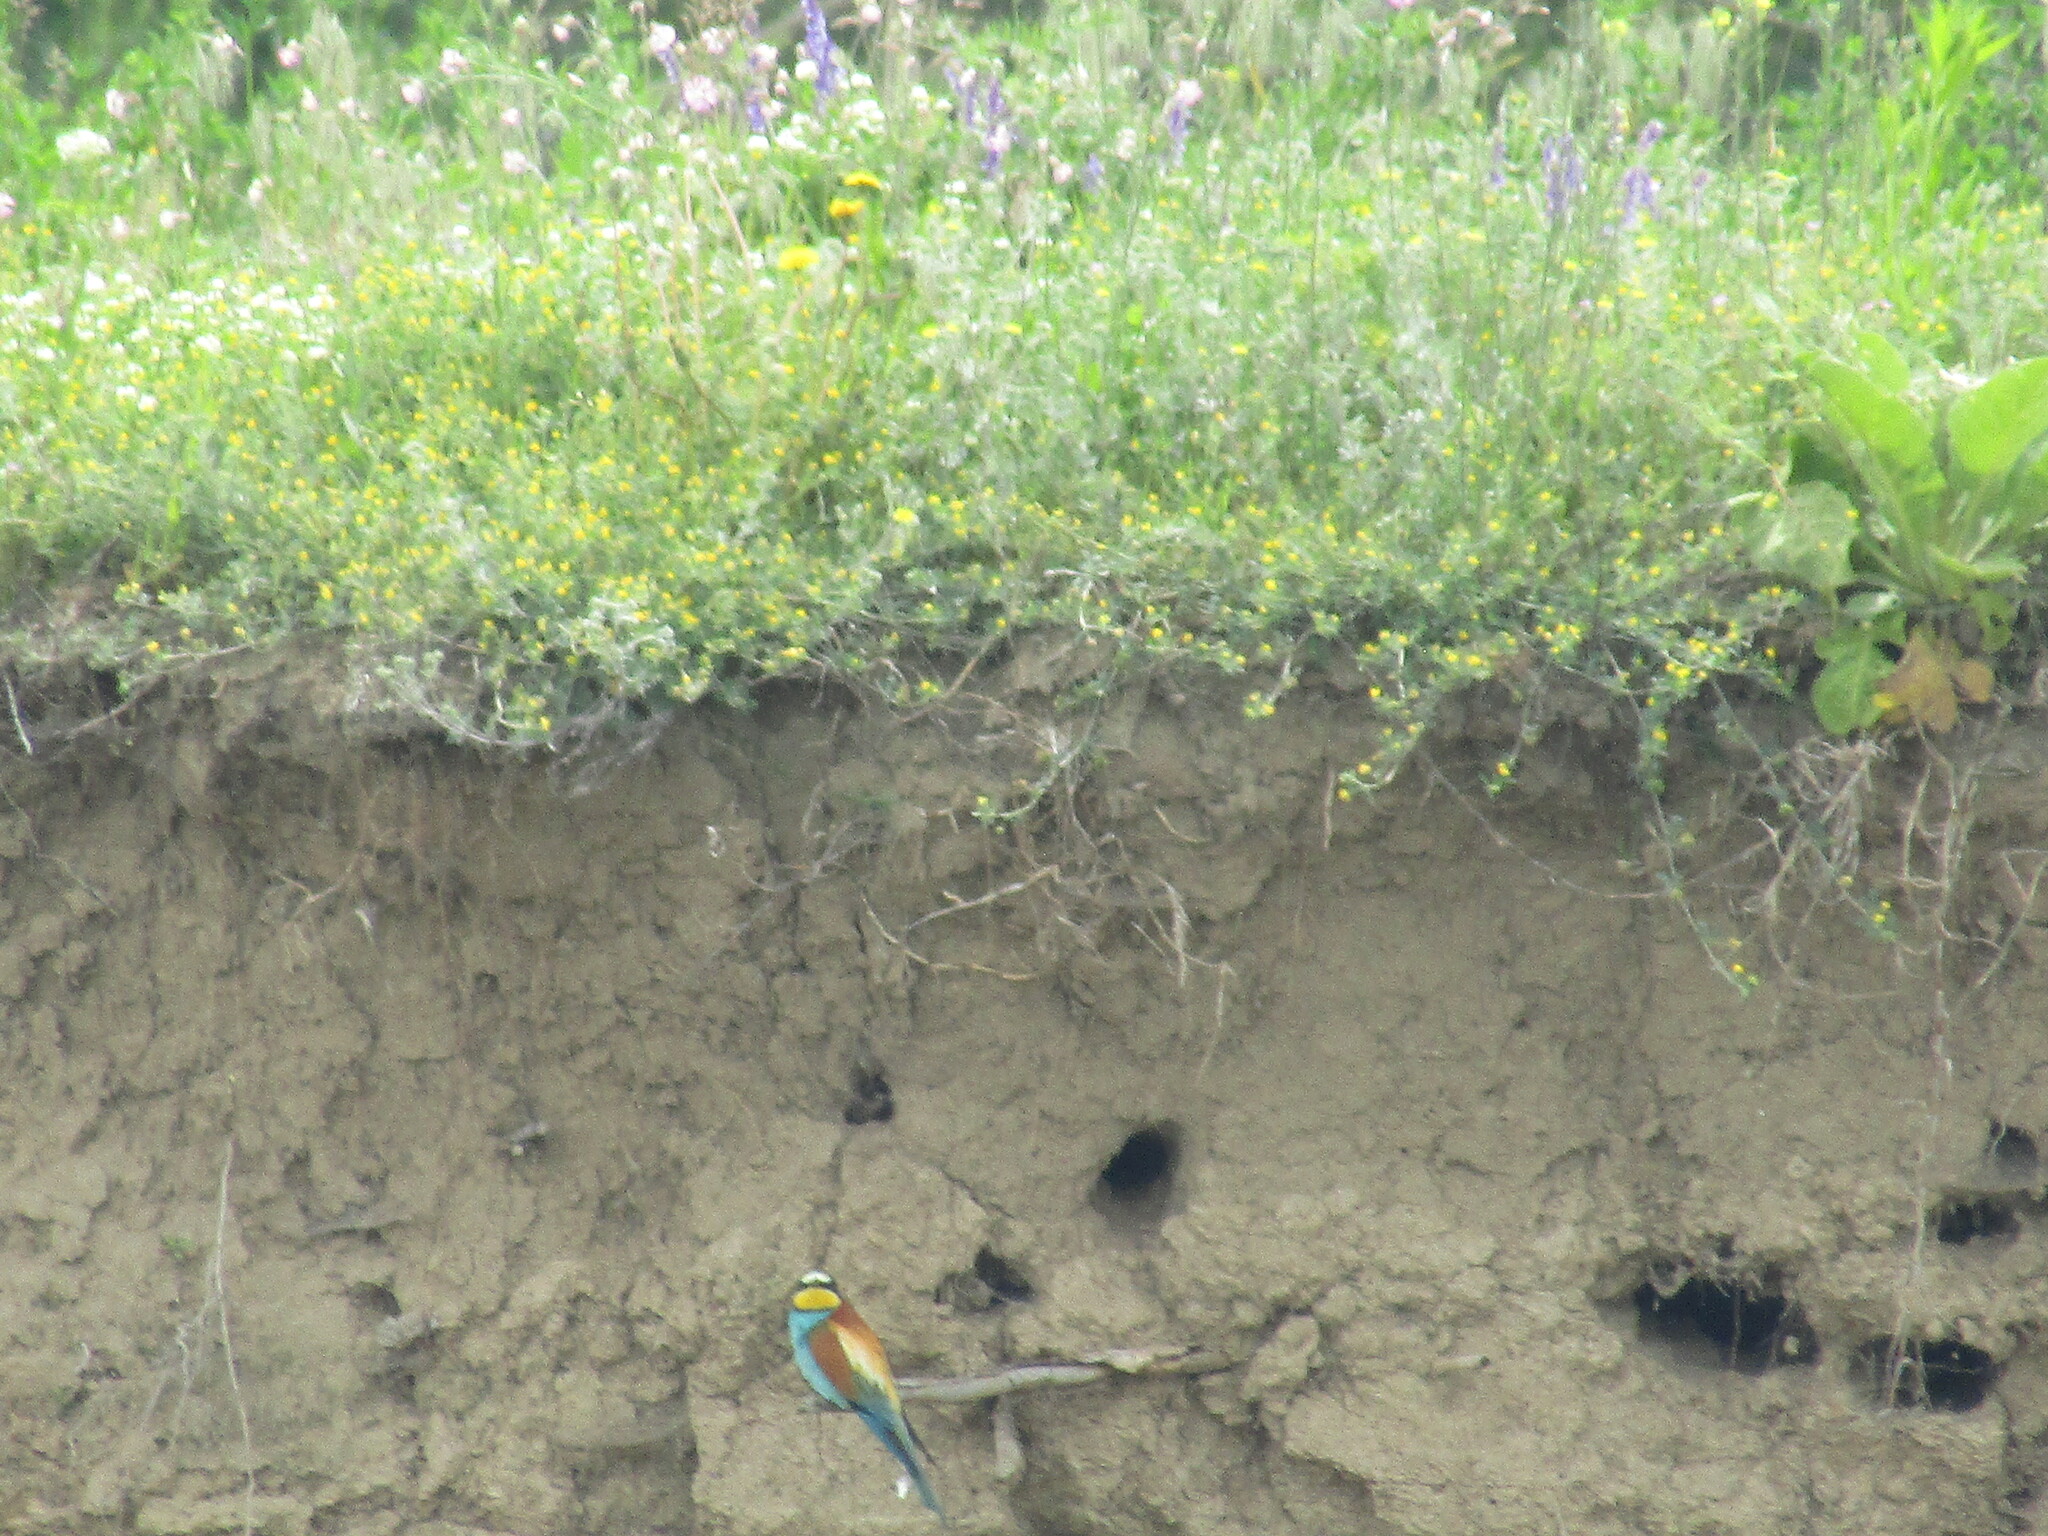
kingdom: Animalia
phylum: Chordata
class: Aves
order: Coraciiformes
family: Meropidae
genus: Merops
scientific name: Merops apiaster
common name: European bee-eater
